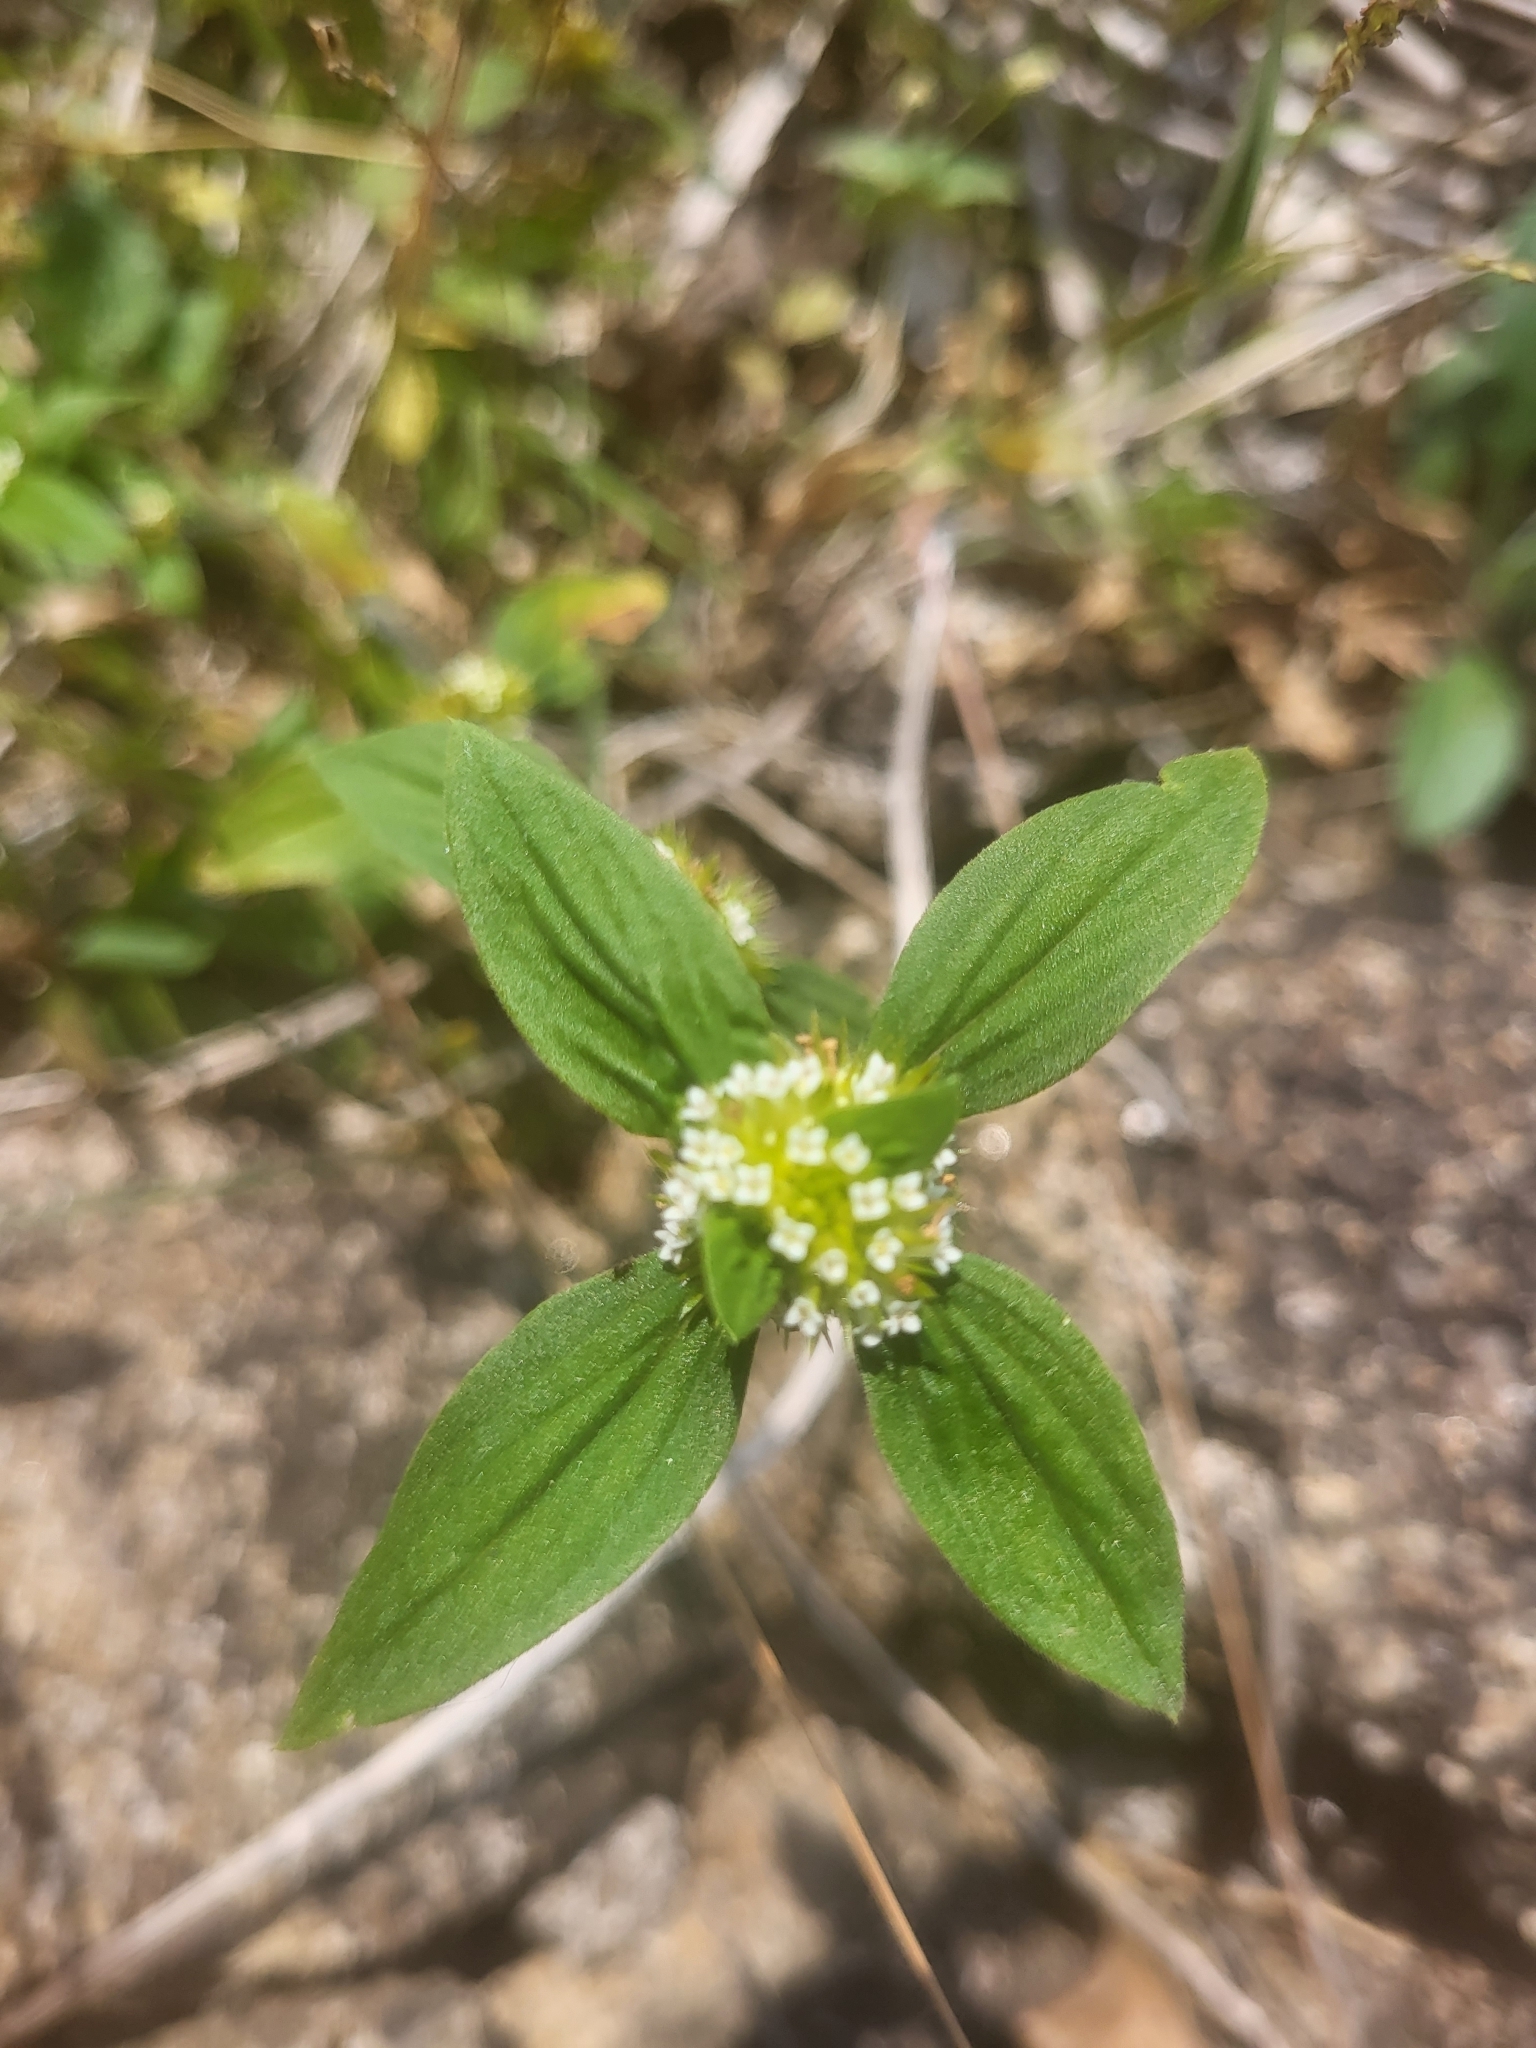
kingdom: Plantae
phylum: Tracheophyta
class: Magnoliopsida
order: Gentianales
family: Rubiaceae
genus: Mitracarpus
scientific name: Mitracarpus hirtus
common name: Tropical girdlepod
